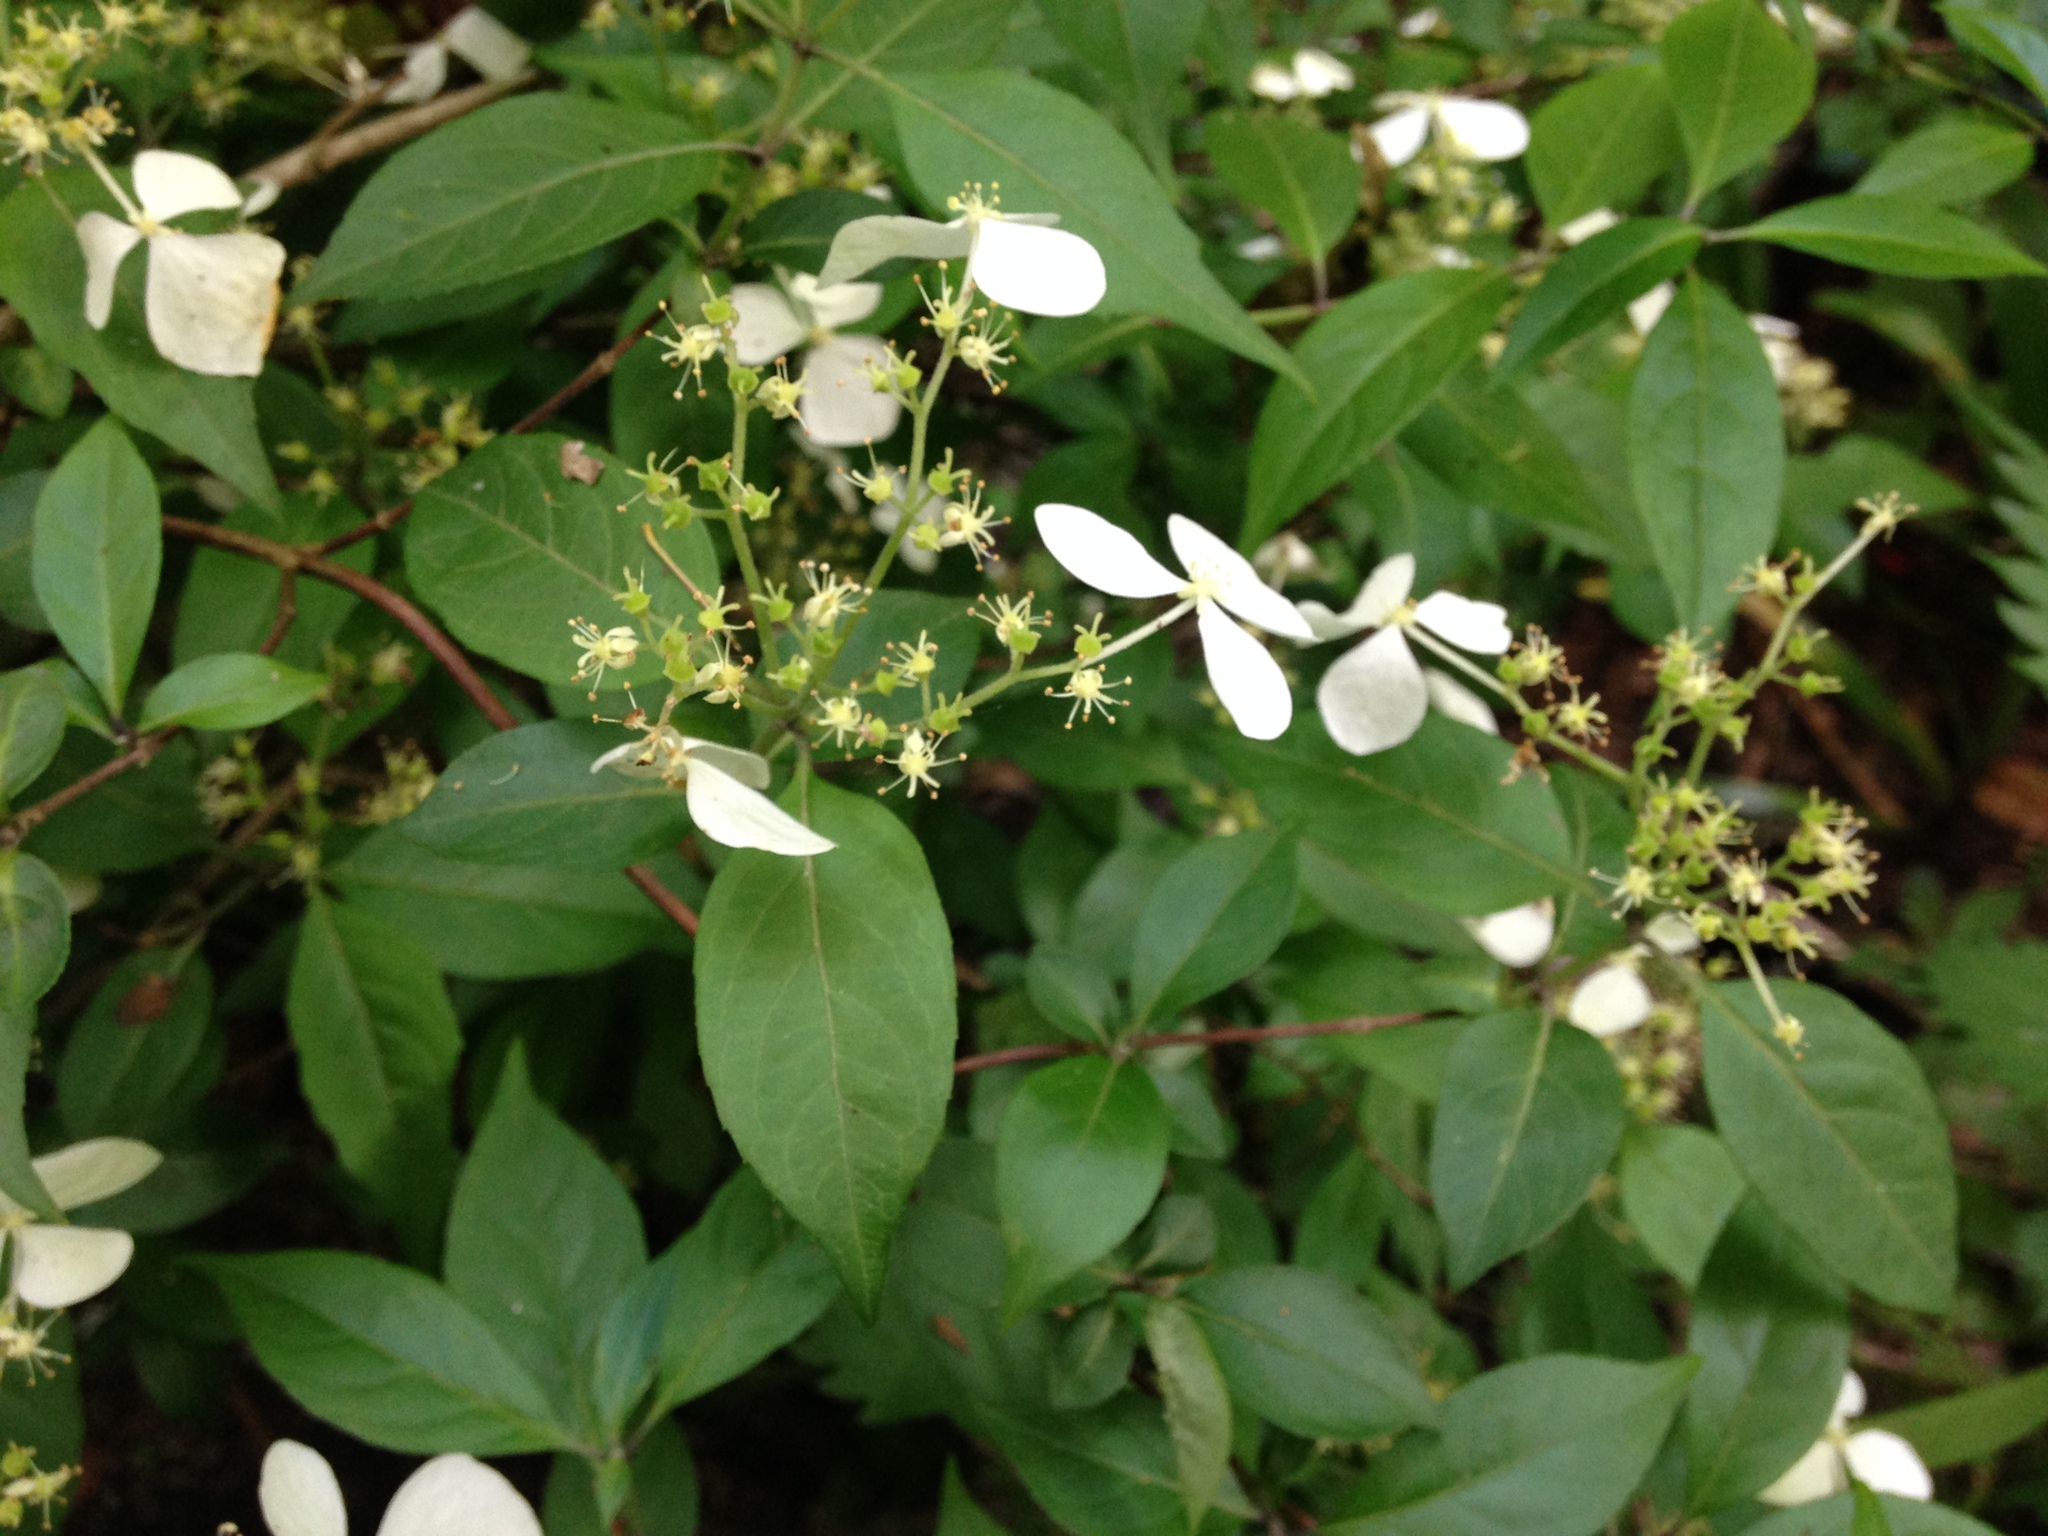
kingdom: Plantae
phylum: Tracheophyta
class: Magnoliopsida
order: Cornales
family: Hydrangeaceae
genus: Hydrangea
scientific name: Hydrangea scandens
